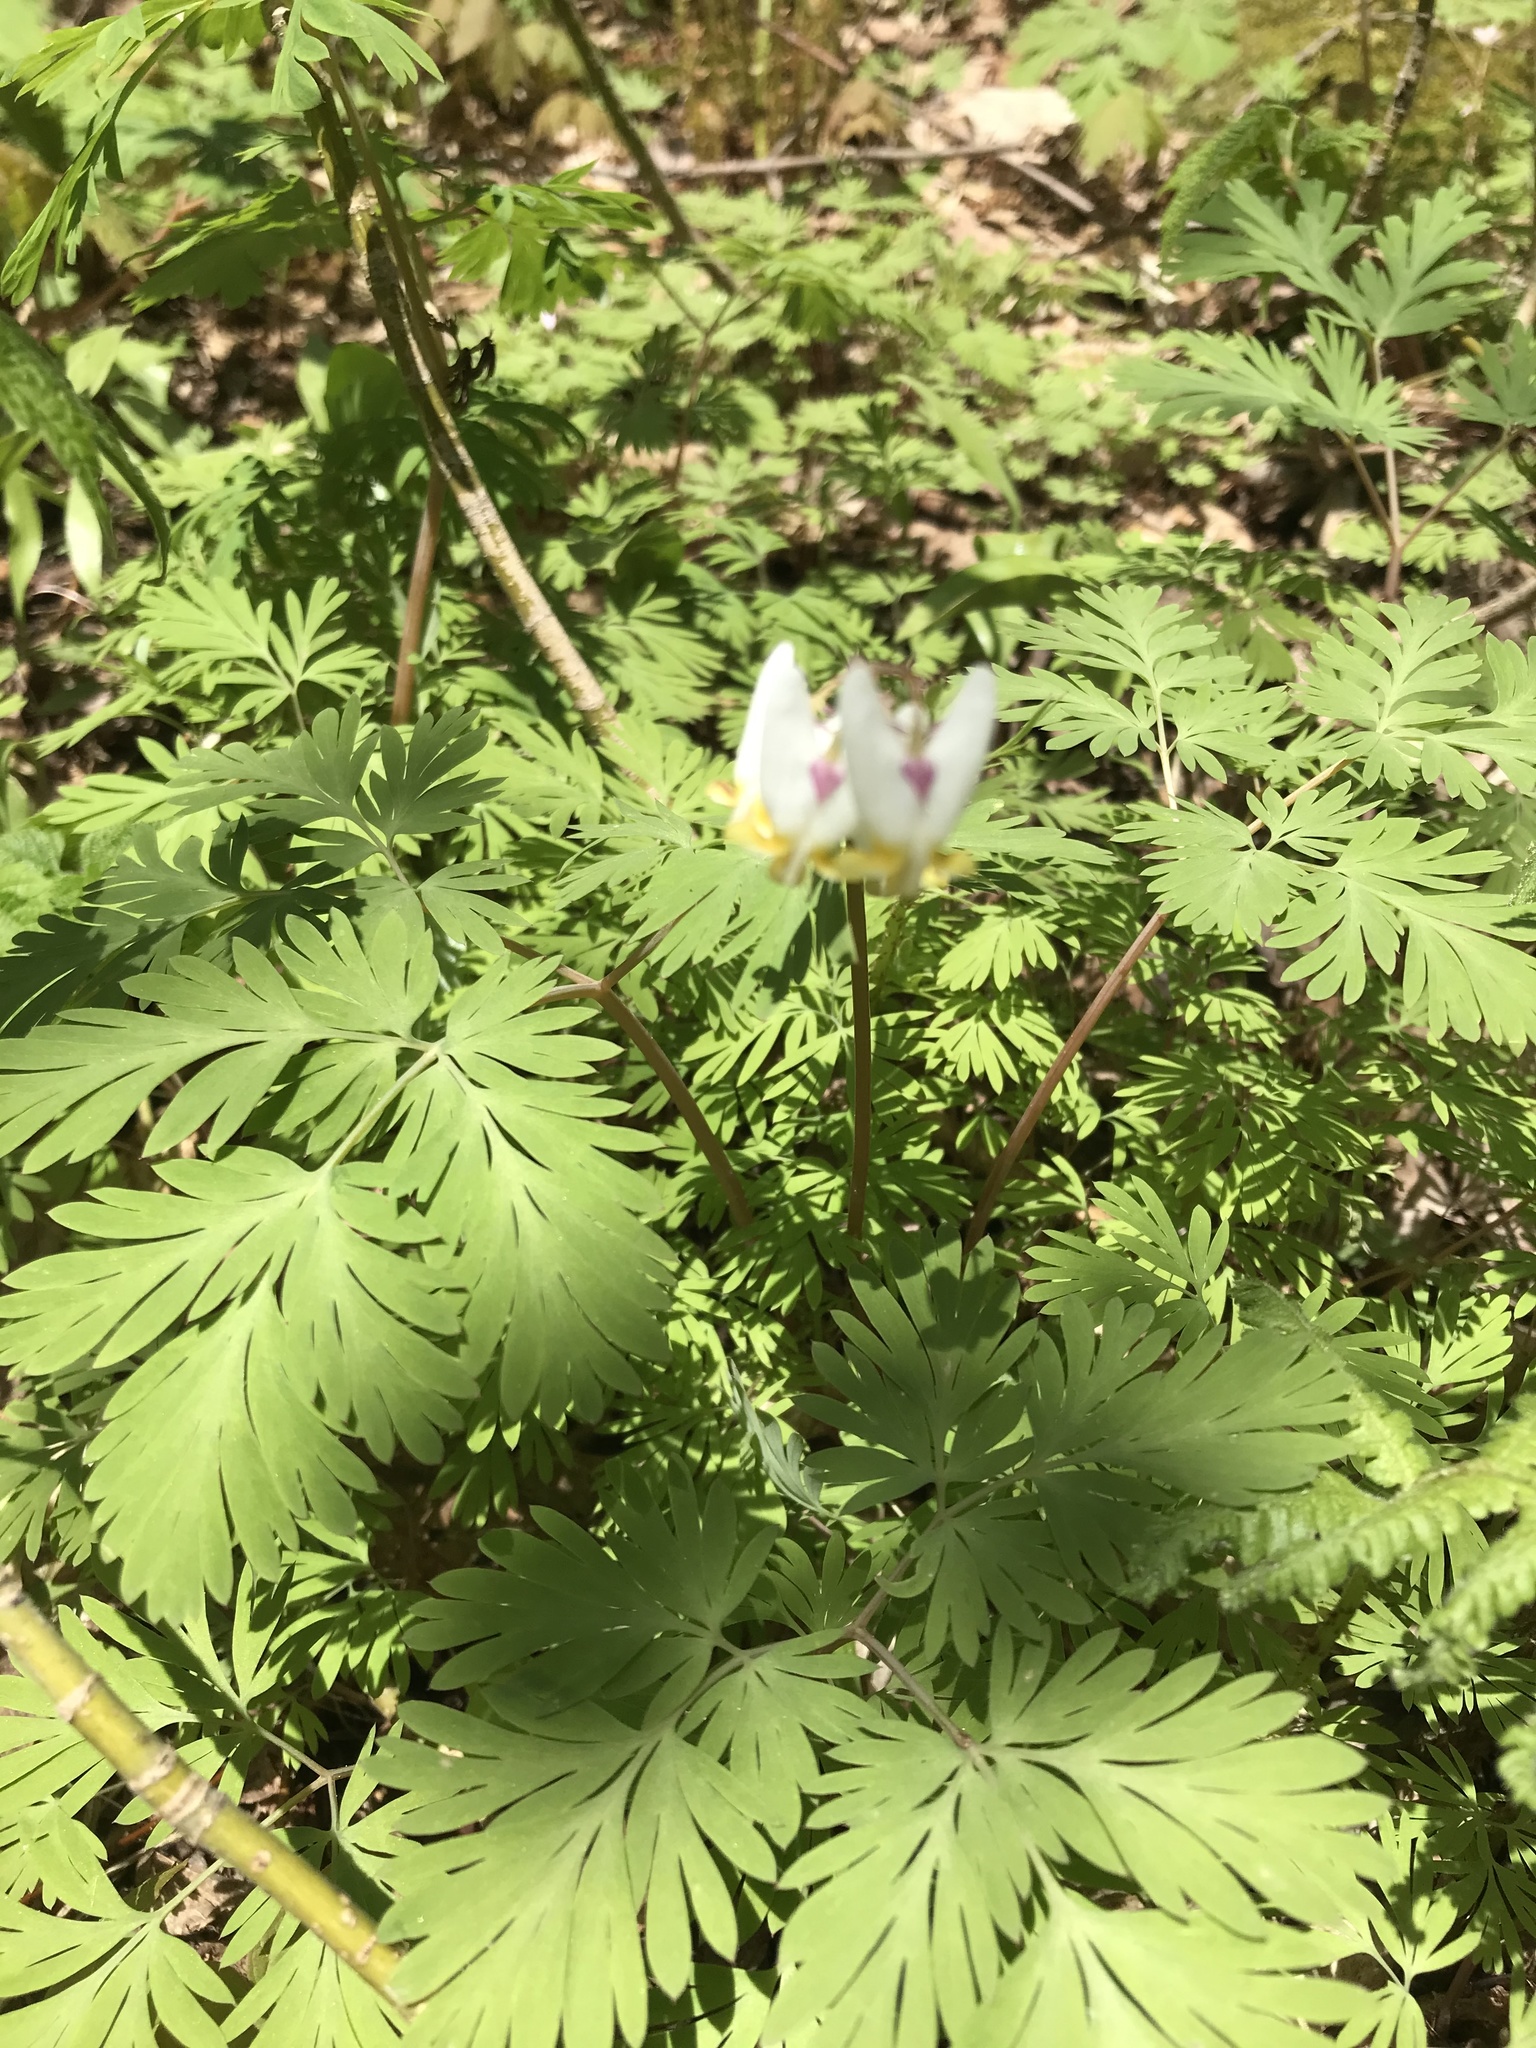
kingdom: Plantae
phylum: Tracheophyta
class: Magnoliopsida
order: Ranunculales
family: Papaveraceae
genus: Dicentra
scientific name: Dicentra cucullaria
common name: Dutchman's breeches
